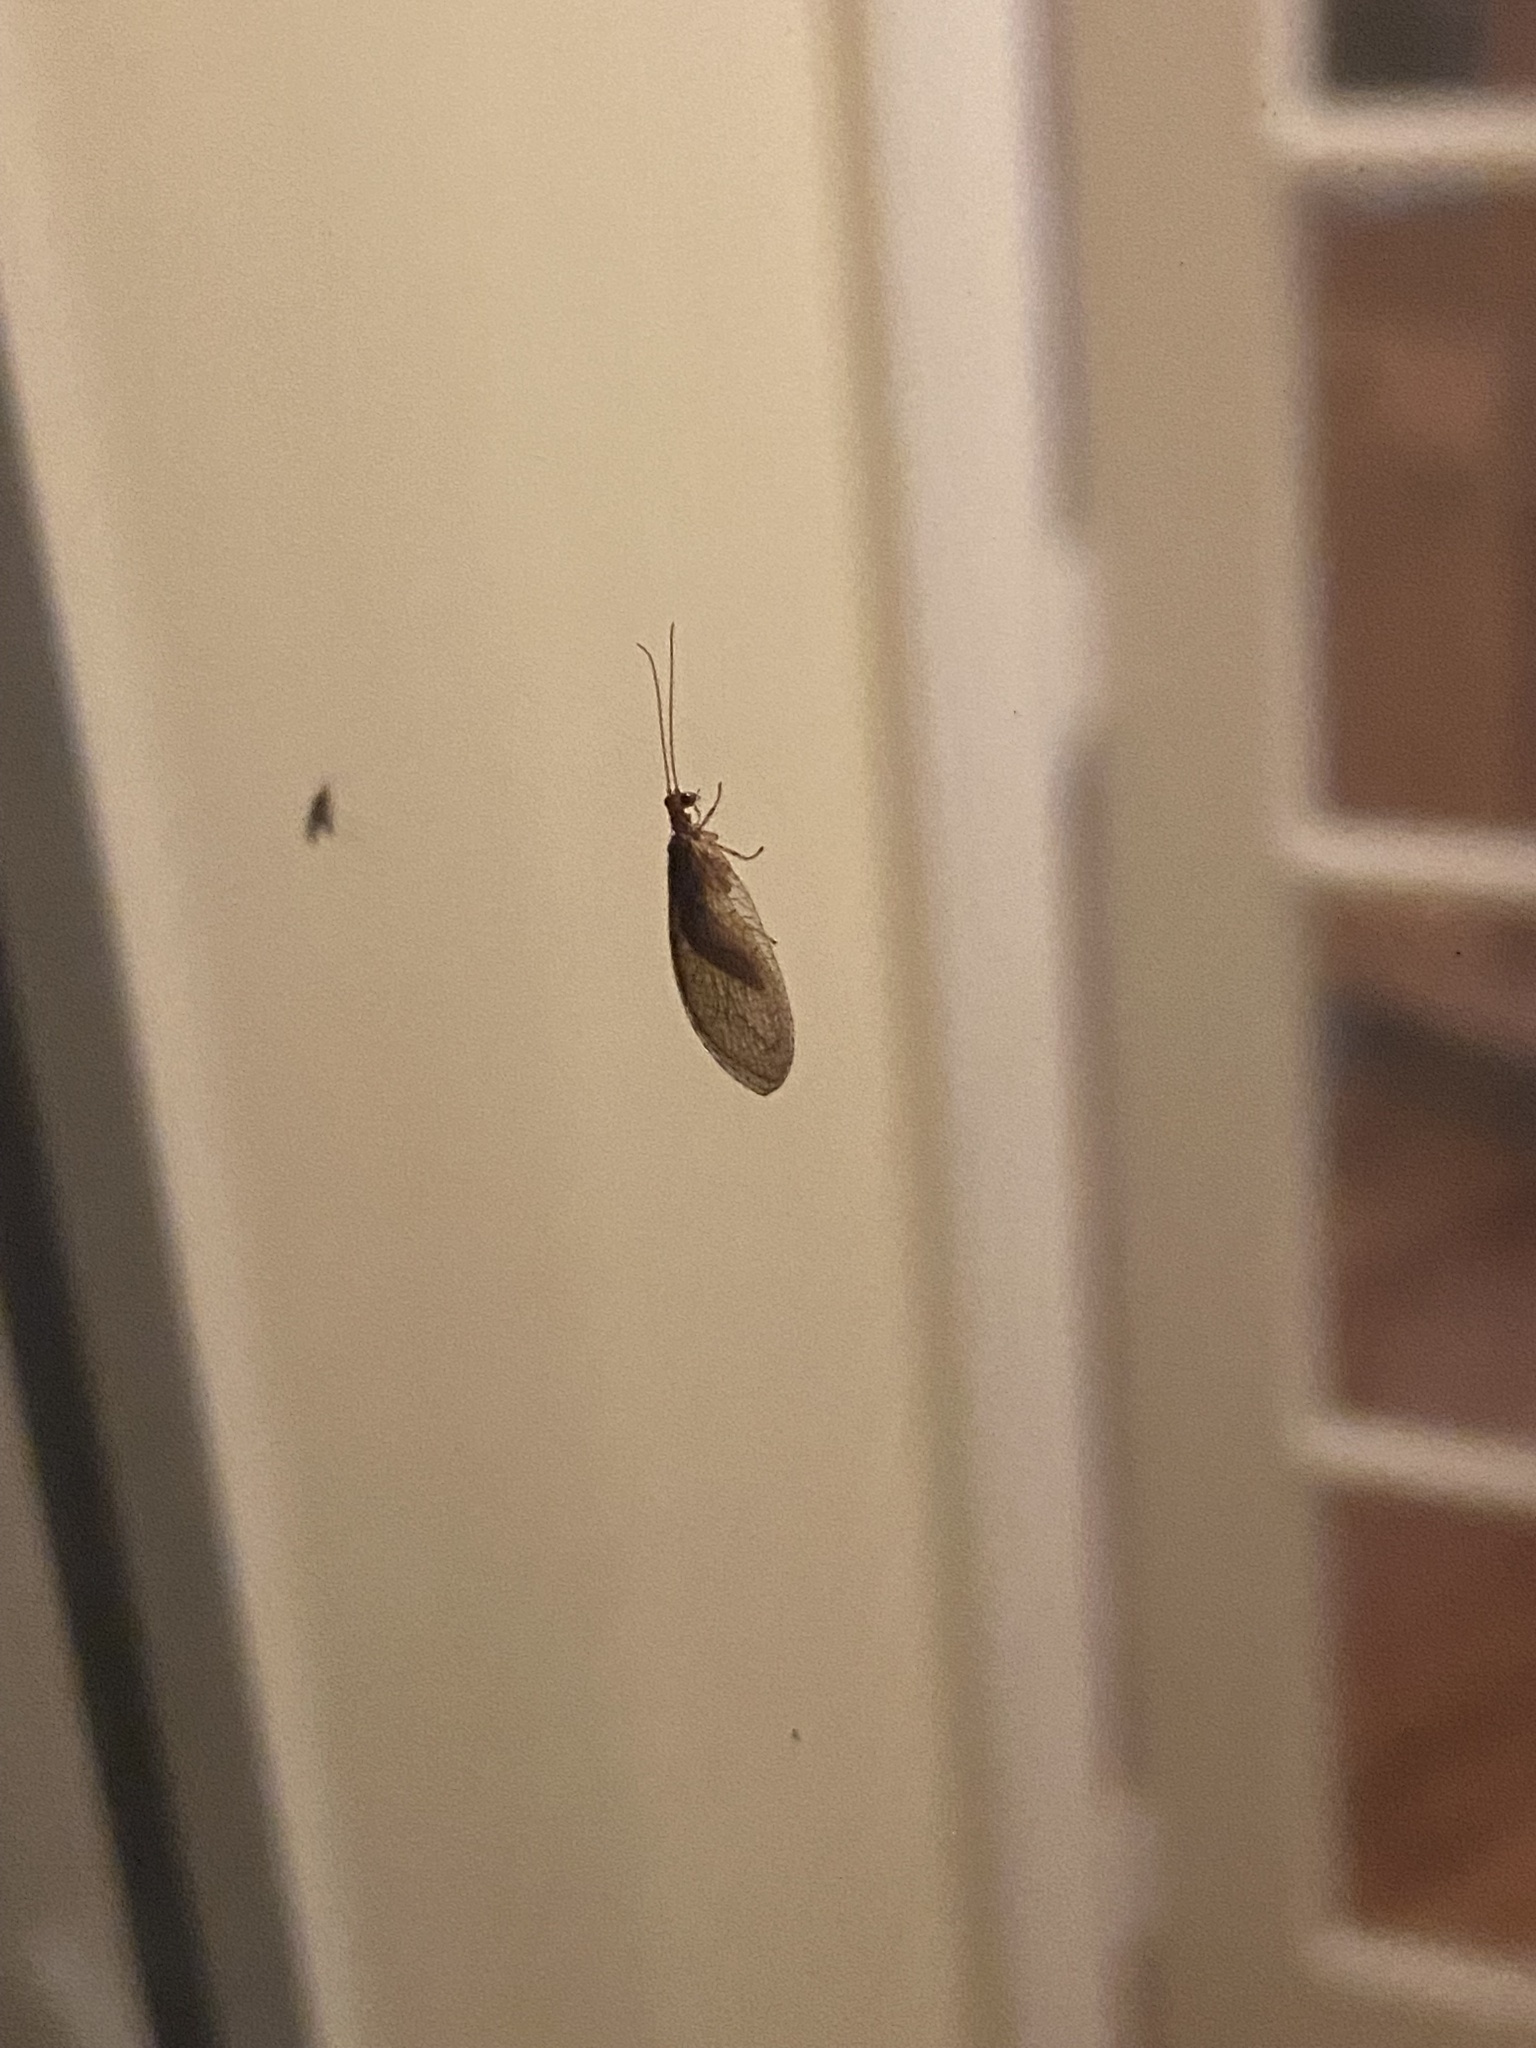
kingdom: Animalia
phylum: Arthropoda
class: Insecta
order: Neuroptera
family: Hemerobiidae
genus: Micromus
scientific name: Micromus posticus
